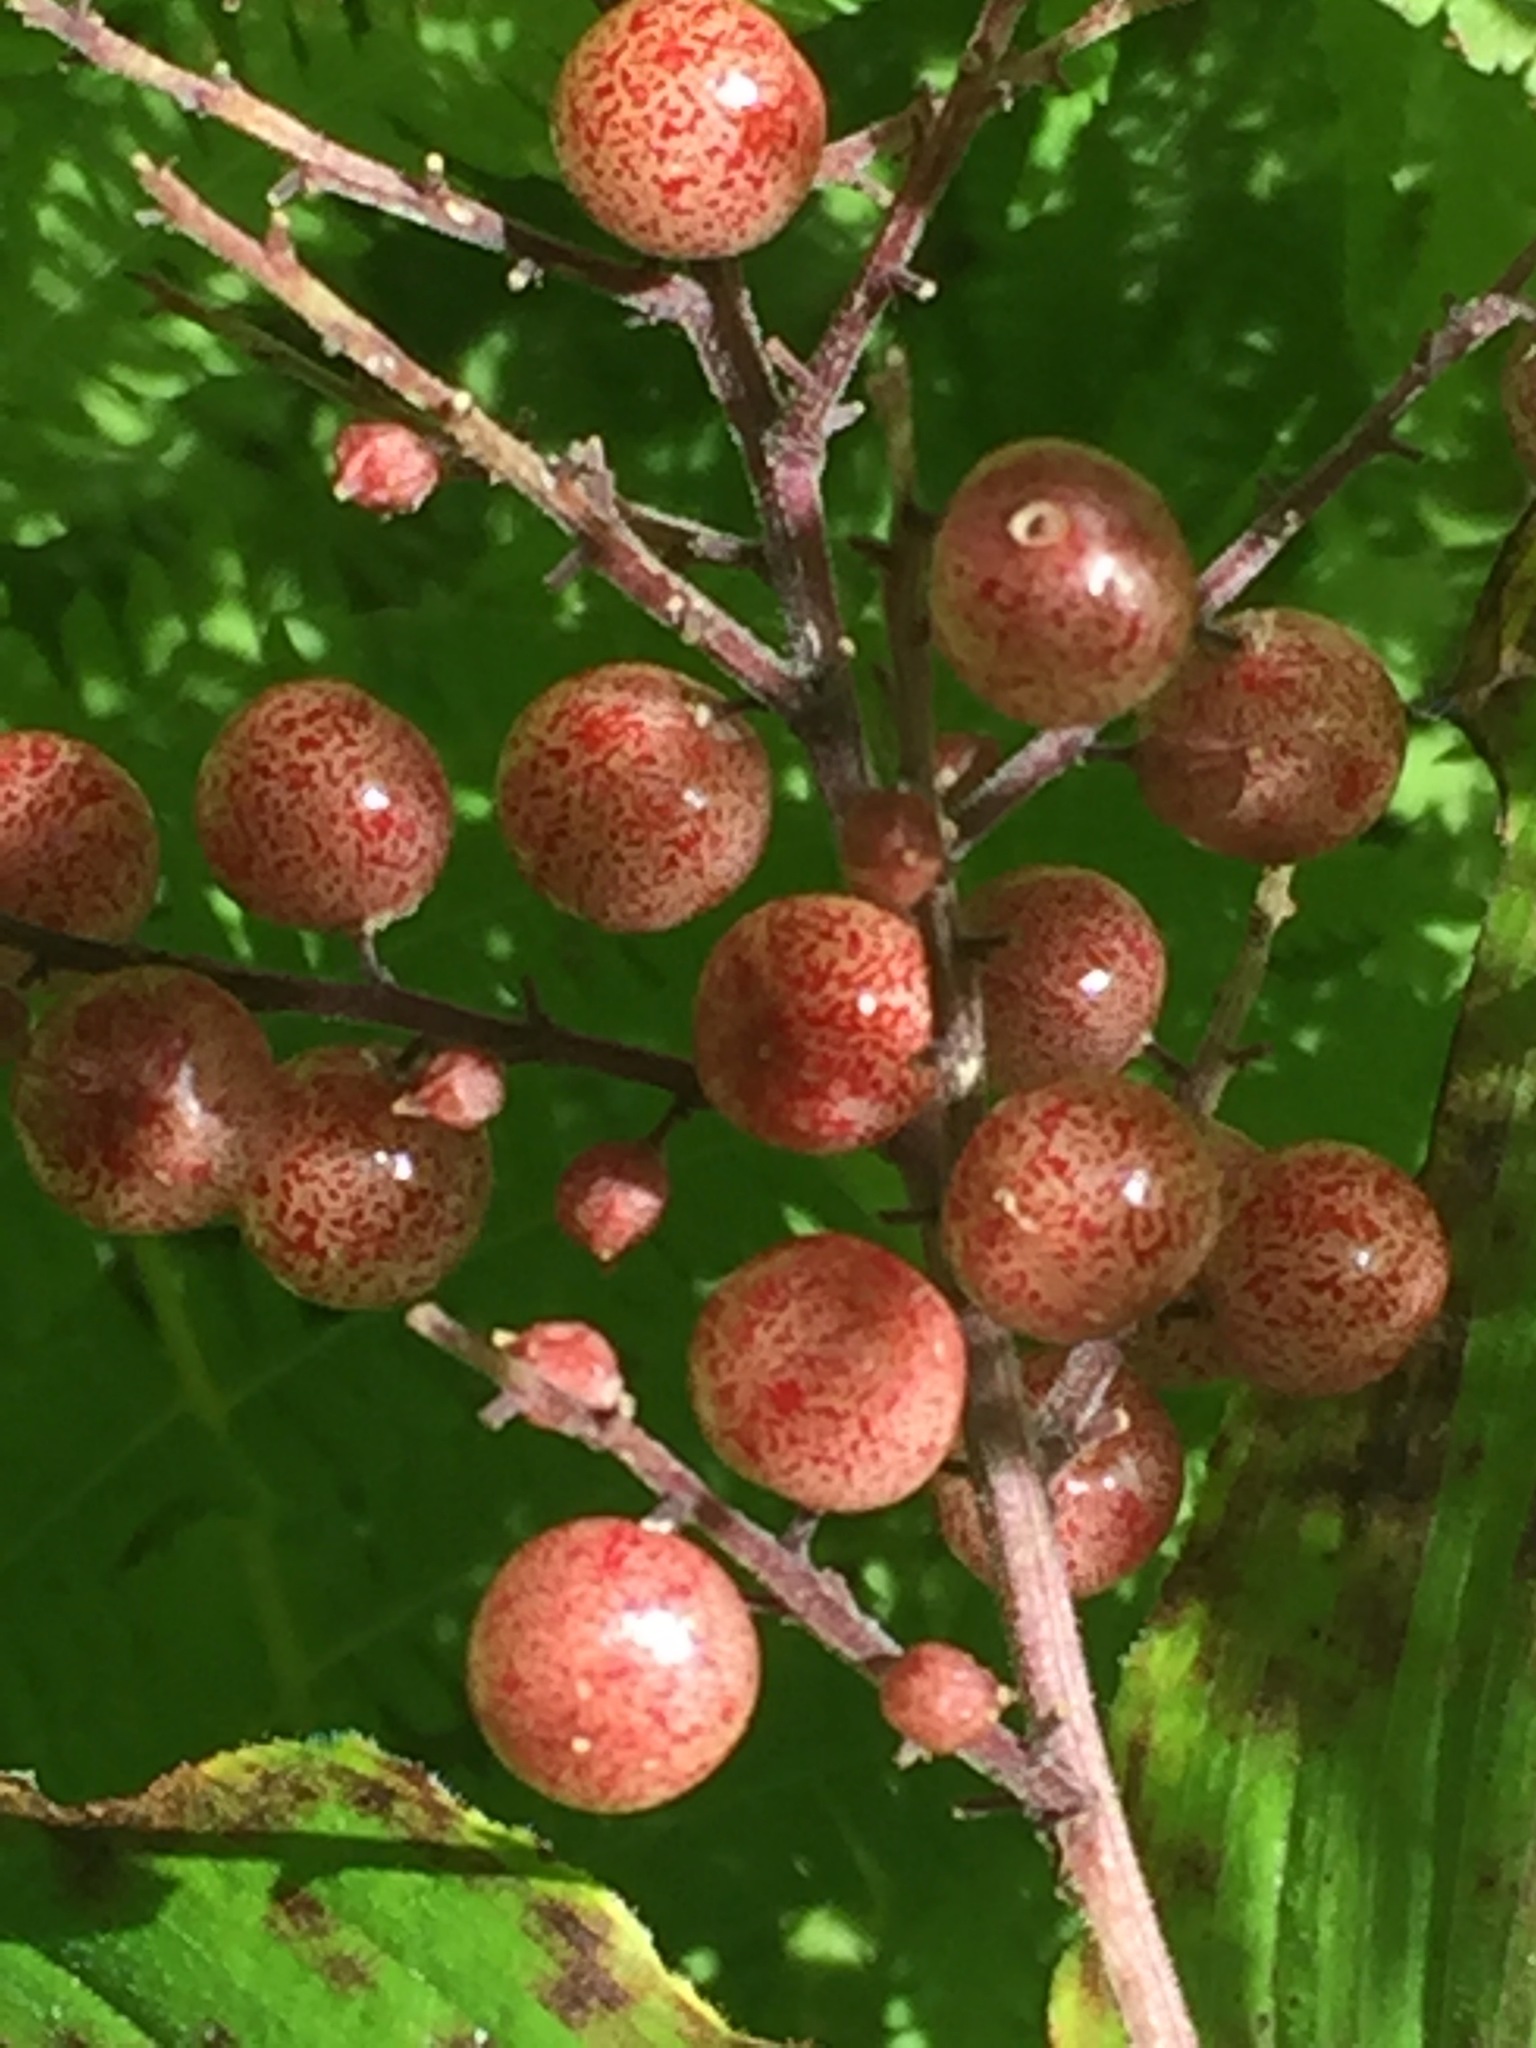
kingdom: Plantae
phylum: Tracheophyta
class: Liliopsida
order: Asparagales
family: Asparagaceae
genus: Maianthemum
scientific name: Maianthemum racemosum
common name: False spikenard
